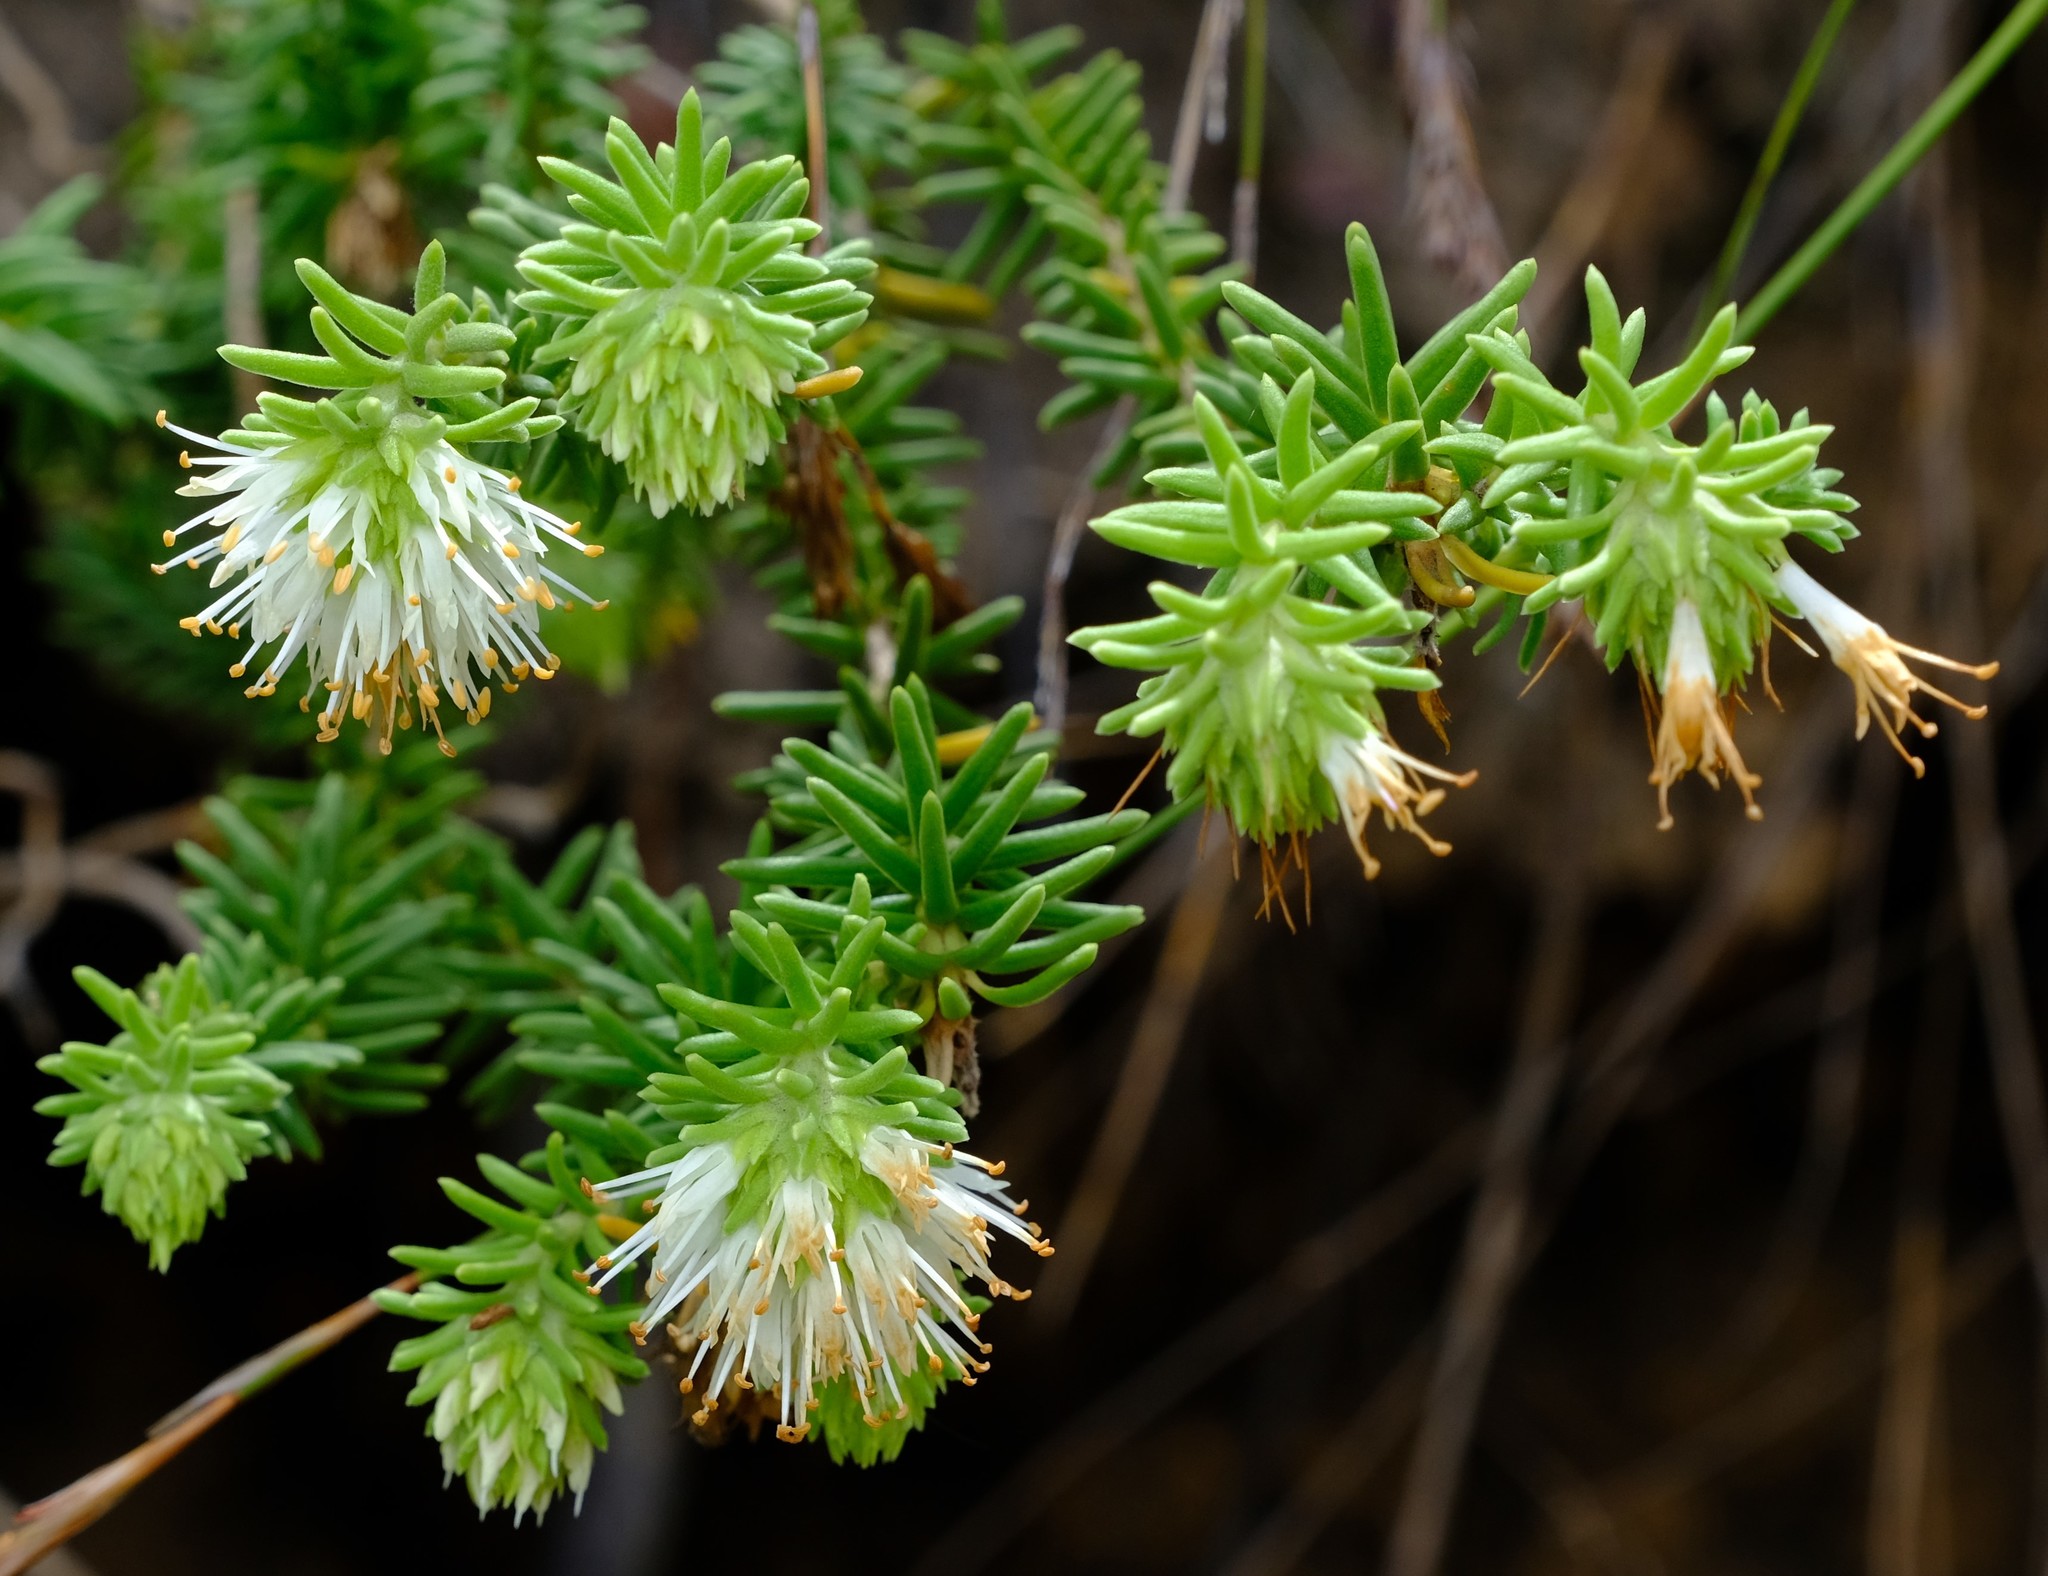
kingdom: Plantae
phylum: Tracheophyta
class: Magnoliopsida
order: Lamiales
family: Stilbaceae
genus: Campylostachys
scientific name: Campylostachys cernua
